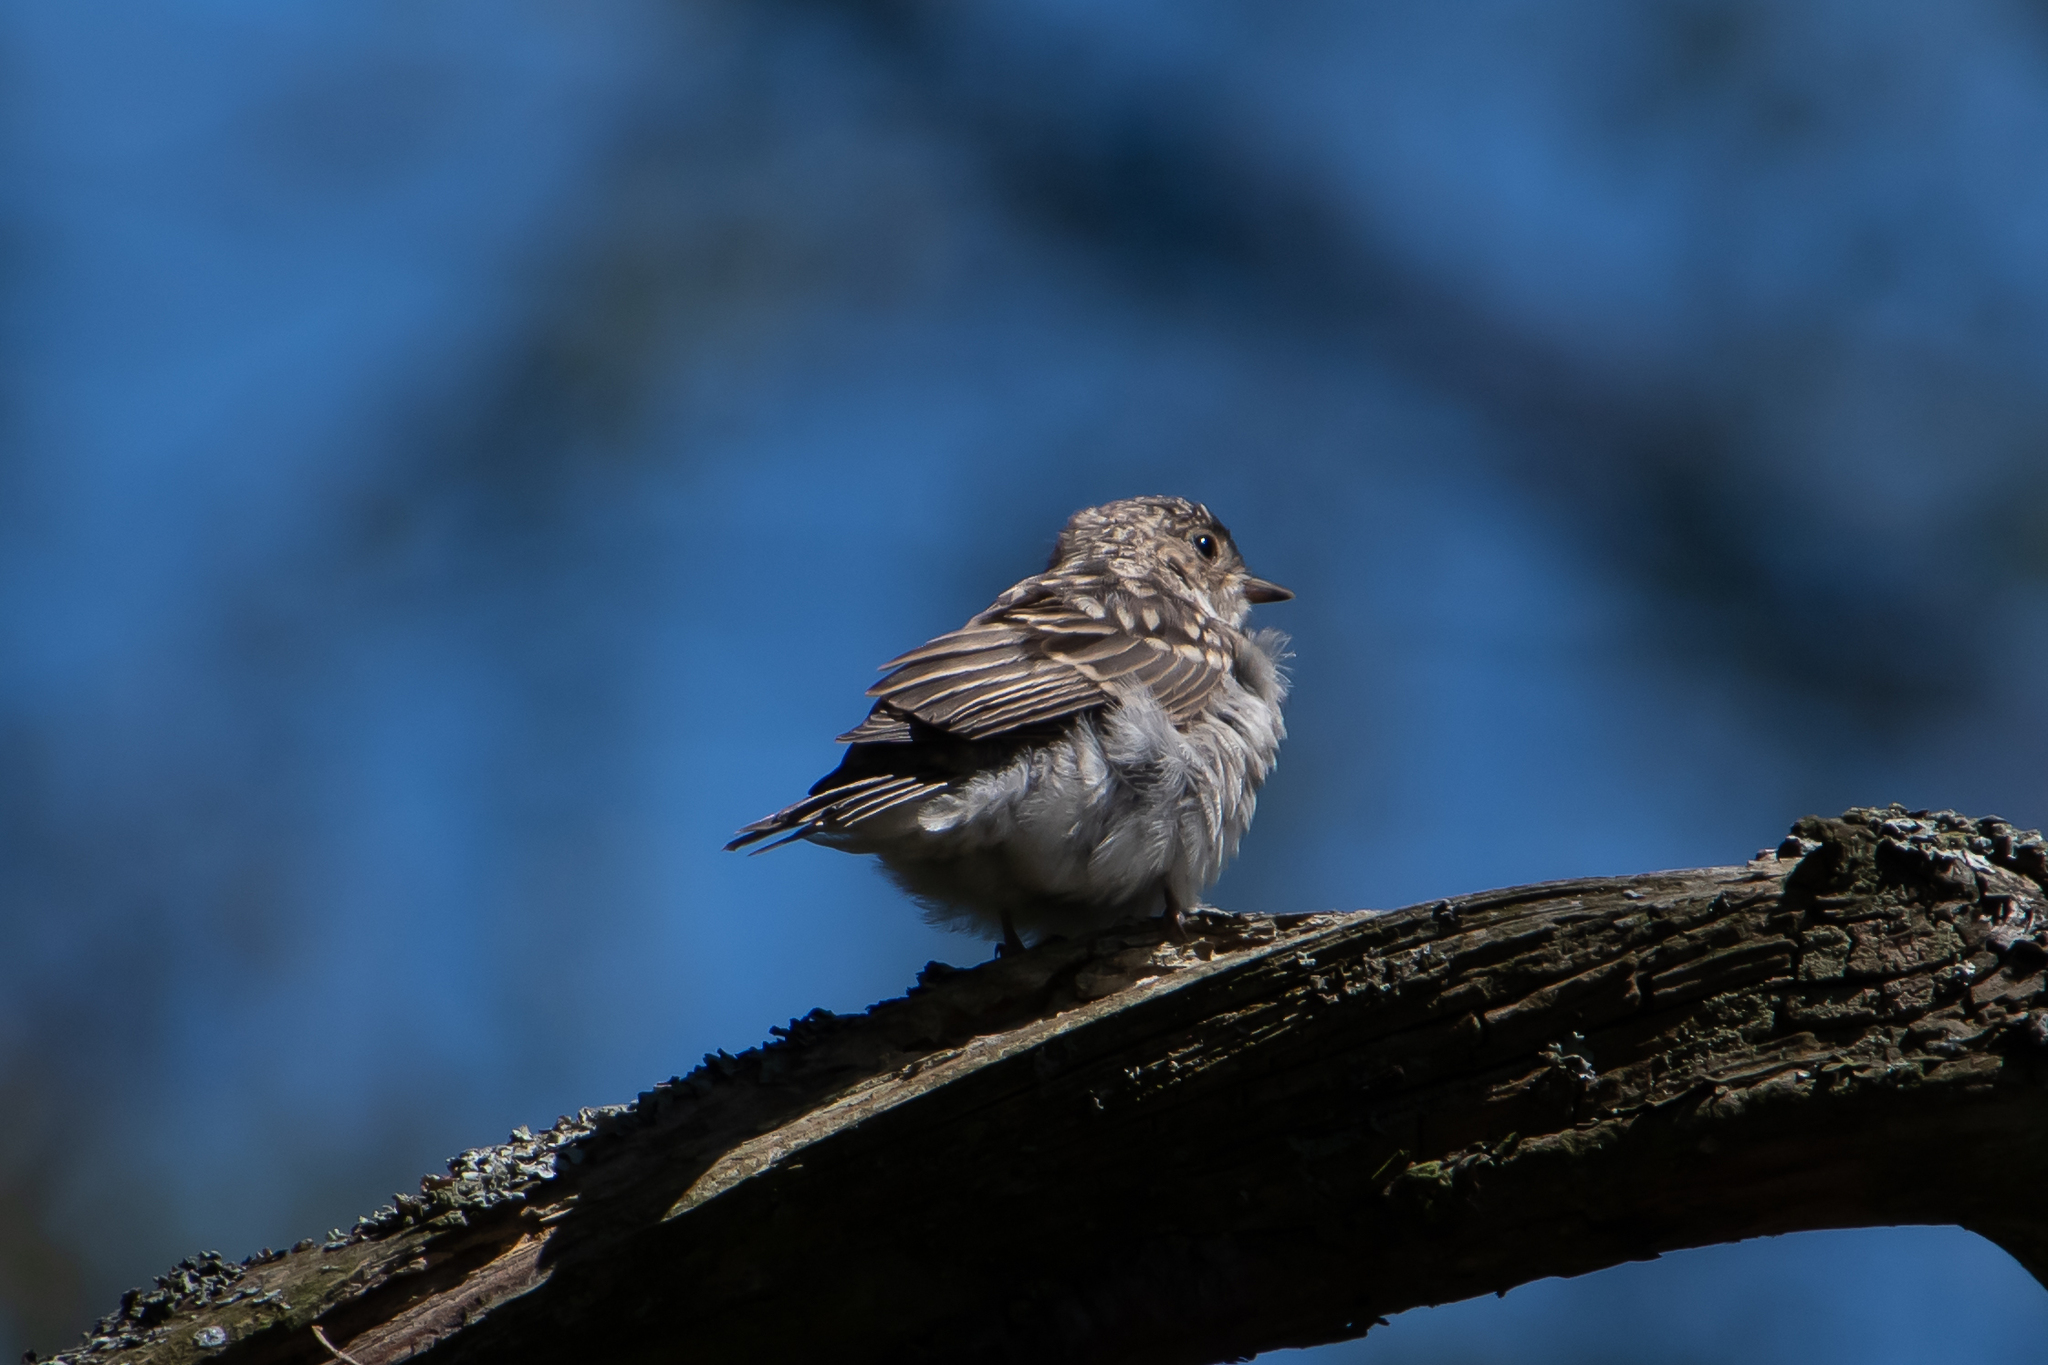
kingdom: Animalia
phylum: Chordata
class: Aves
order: Passeriformes
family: Muscicapidae
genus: Muscicapa
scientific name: Muscicapa striata
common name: Spotted flycatcher
